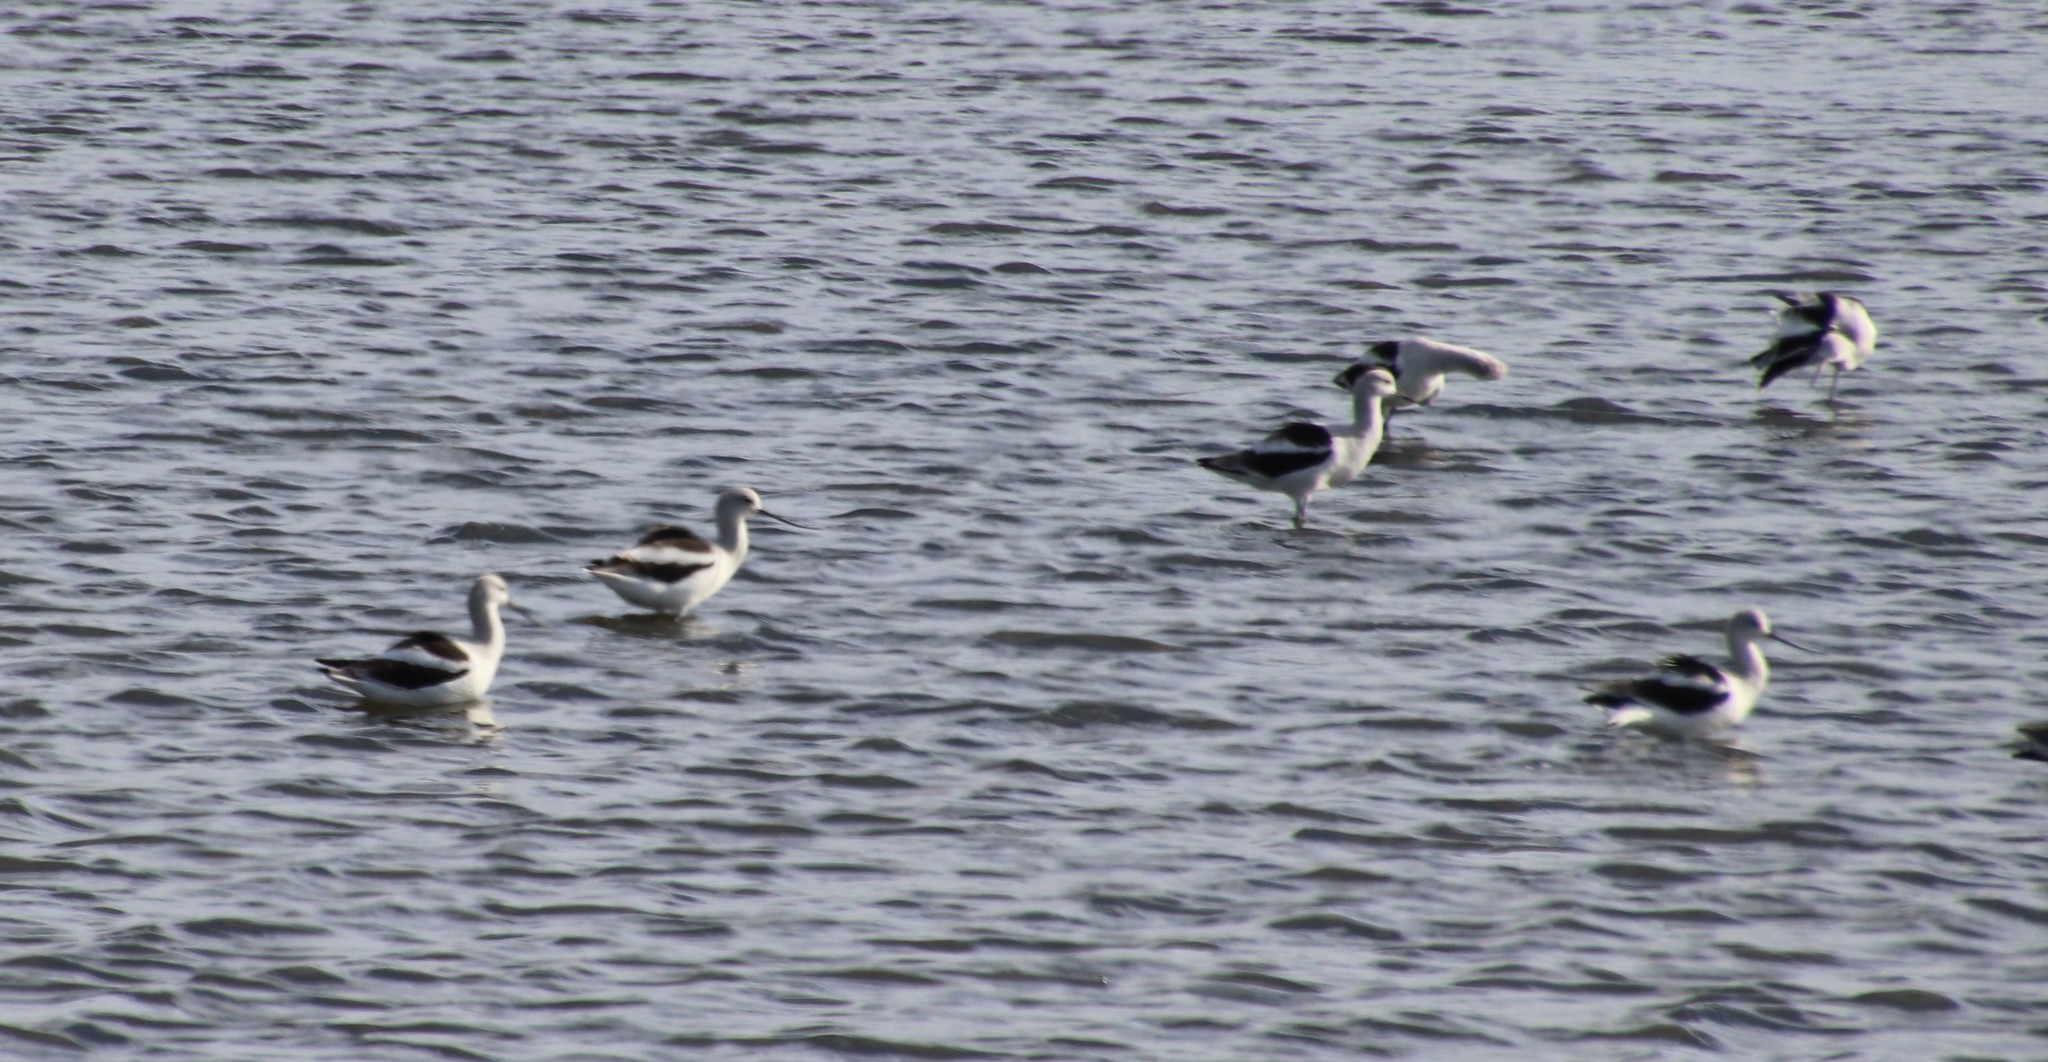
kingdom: Animalia
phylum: Chordata
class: Aves
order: Charadriiformes
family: Recurvirostridae
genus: Recurvirostra
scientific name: Recurvirostra americana
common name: American avocet
